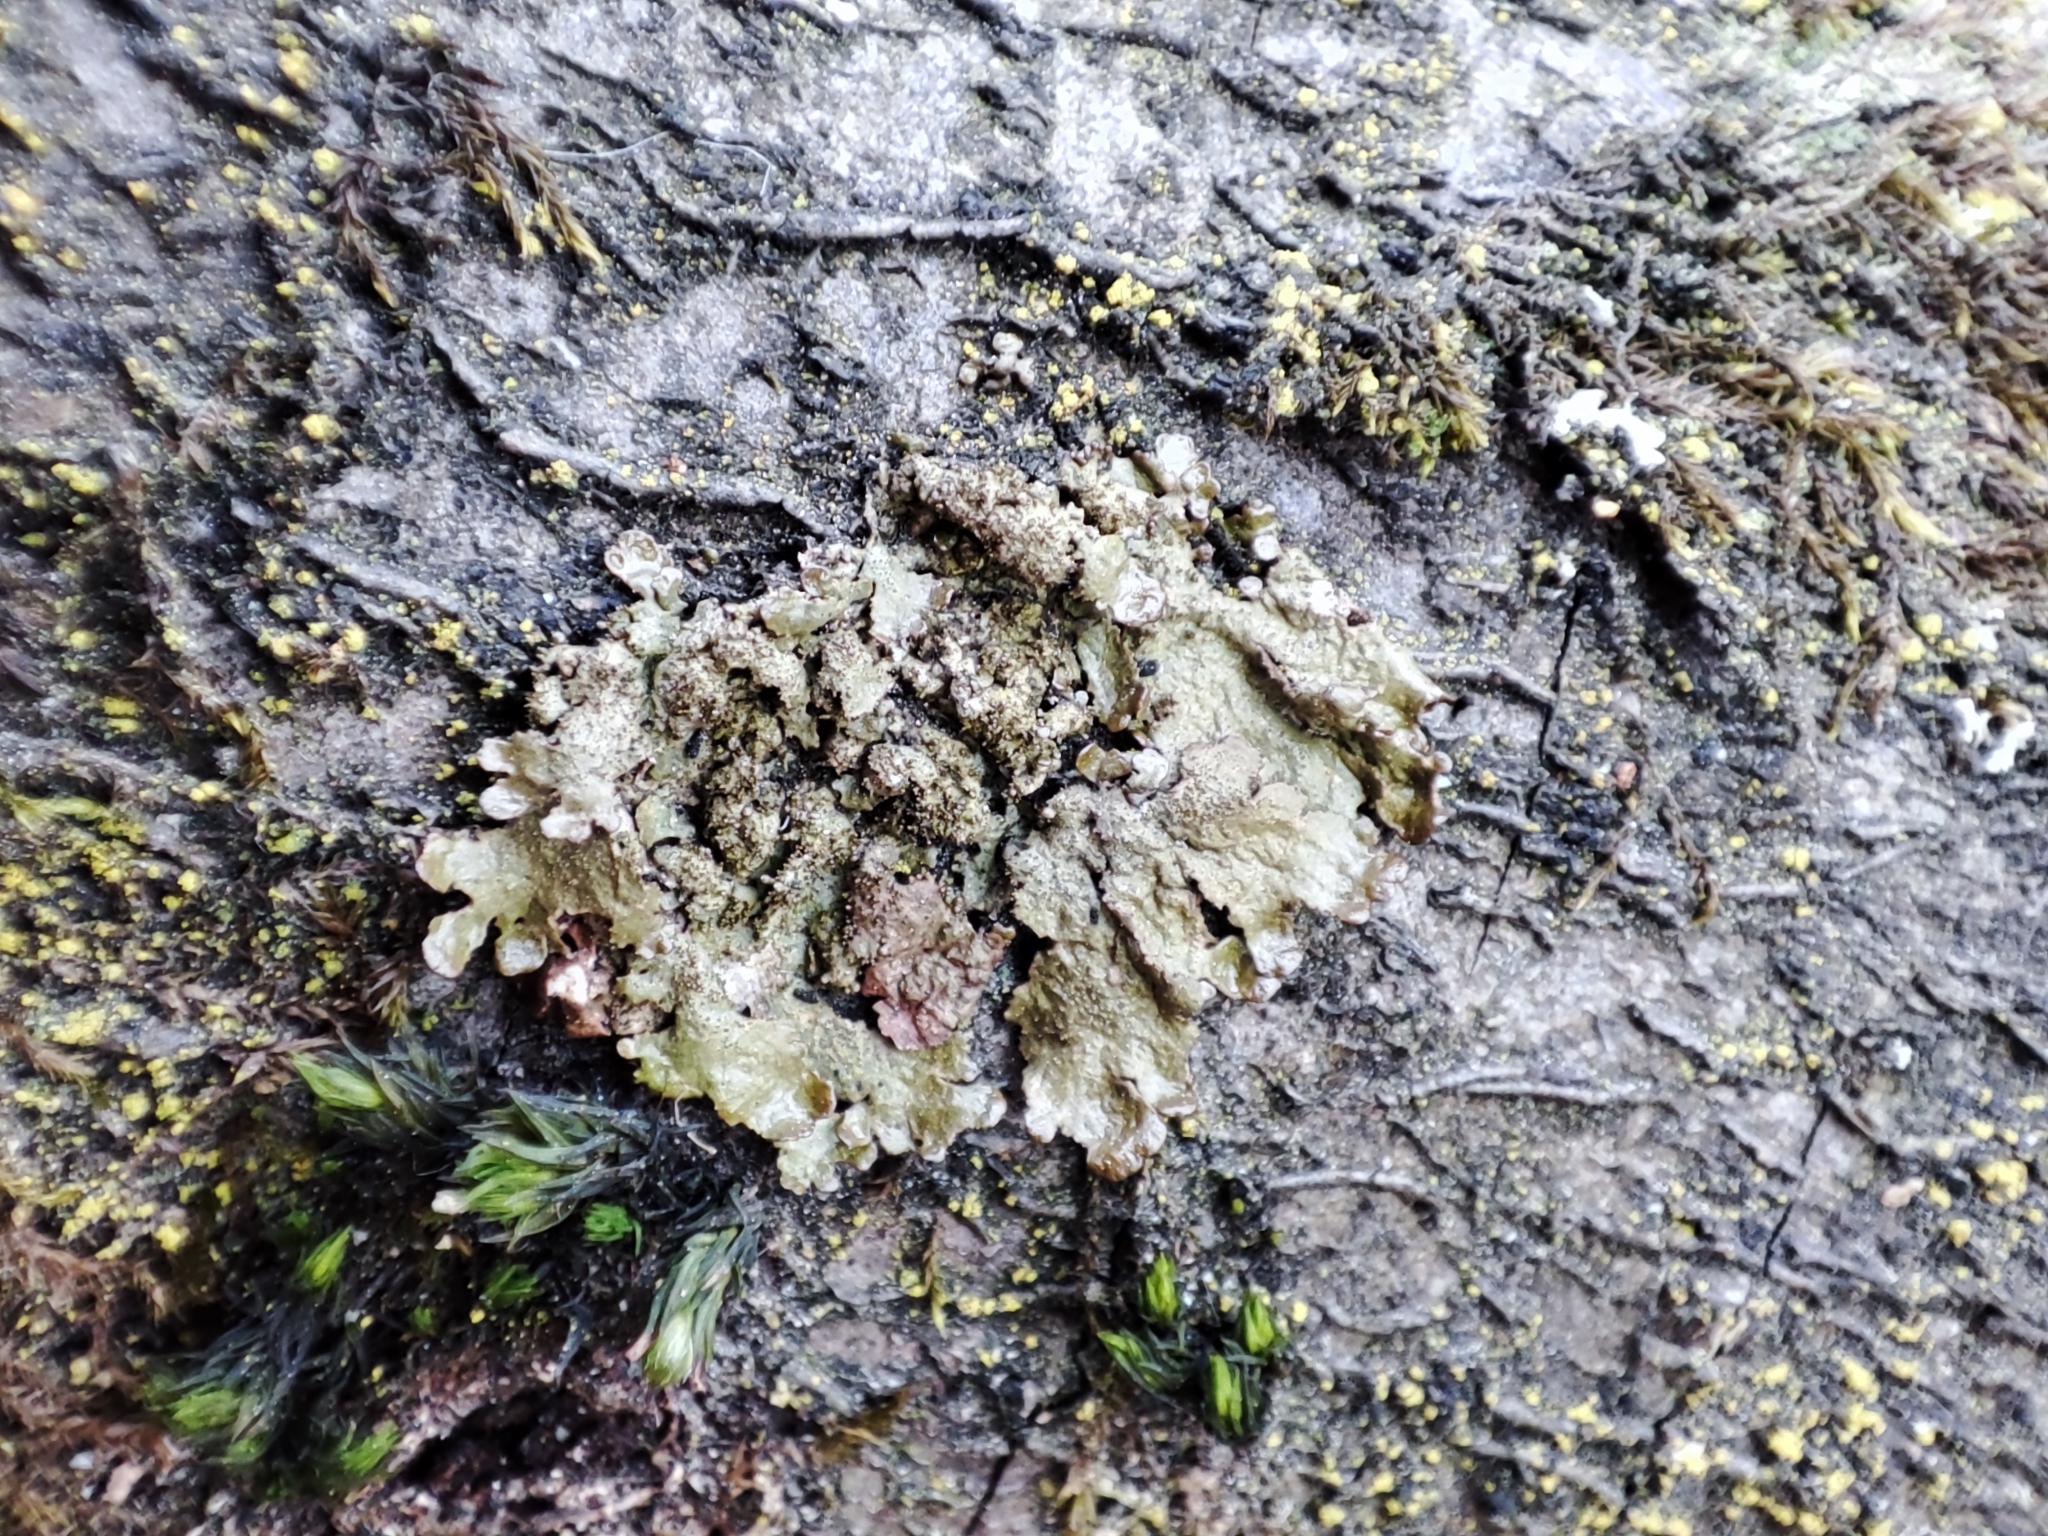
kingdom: Fungi
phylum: Ascomycota
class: Lecanoromycetes
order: Lecanorales
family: Parmeliaceae
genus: Melanelixia
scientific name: Melanelixia glabratula
